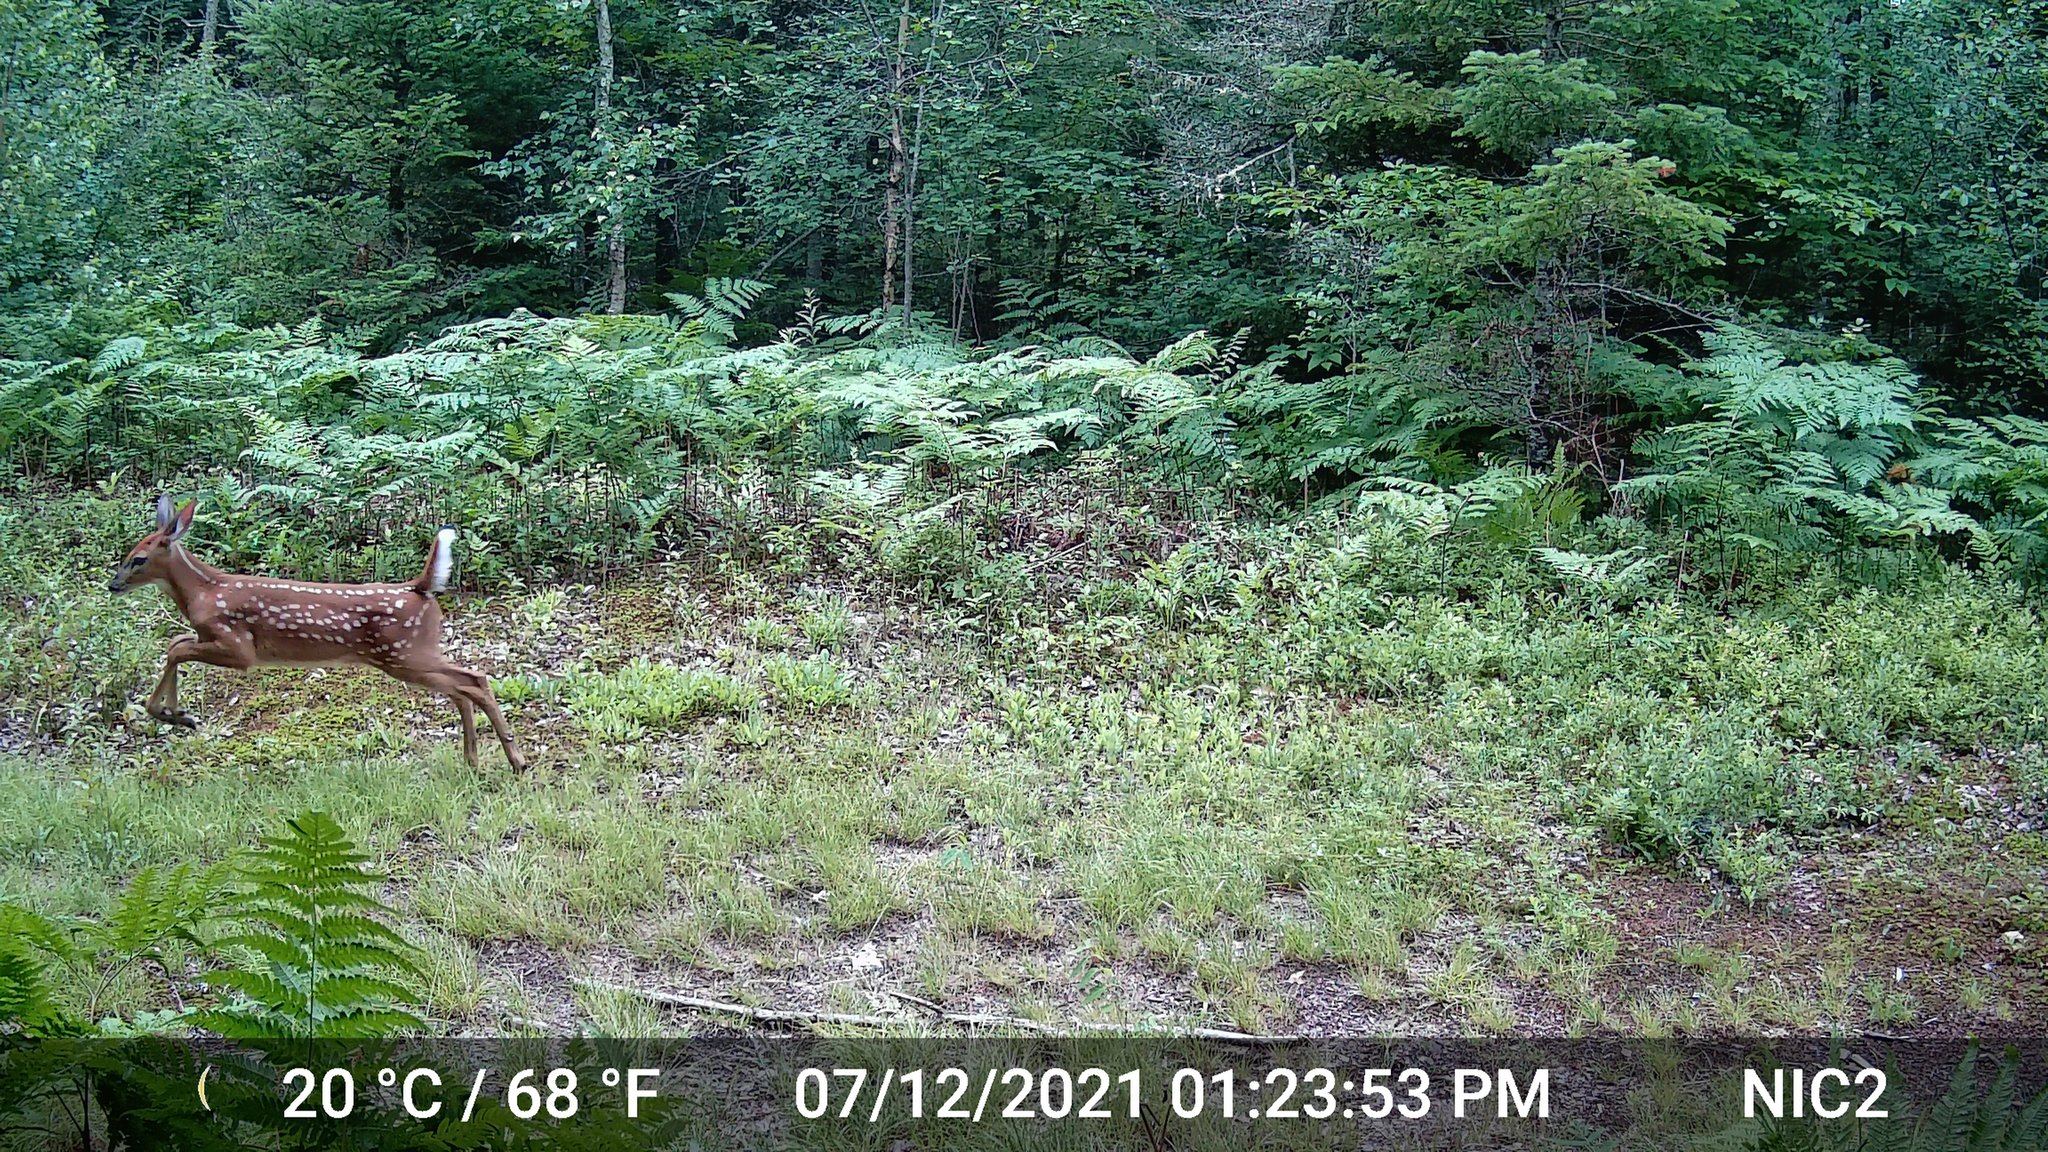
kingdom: Animalia
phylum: Chordata
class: Mammalia
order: Artiodactyla
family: Cervidae
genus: Odocoileus
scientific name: Odocoileus virginianus
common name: White-tailed deer
